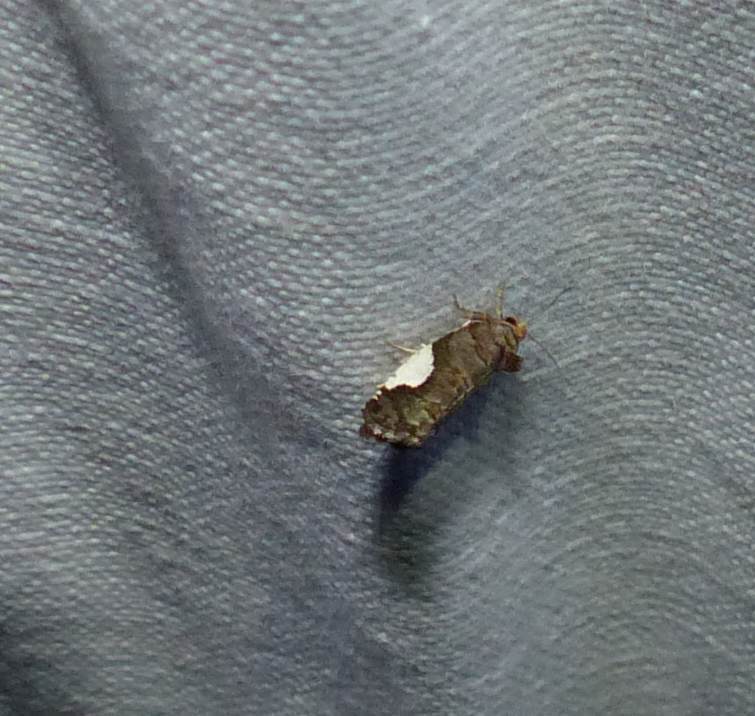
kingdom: Animalia
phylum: Arthropoda
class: Insecta
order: Lepidoptera
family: Tortricidae
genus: Hedya
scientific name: Hedya chionosema
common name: White-spotted hedya moth
